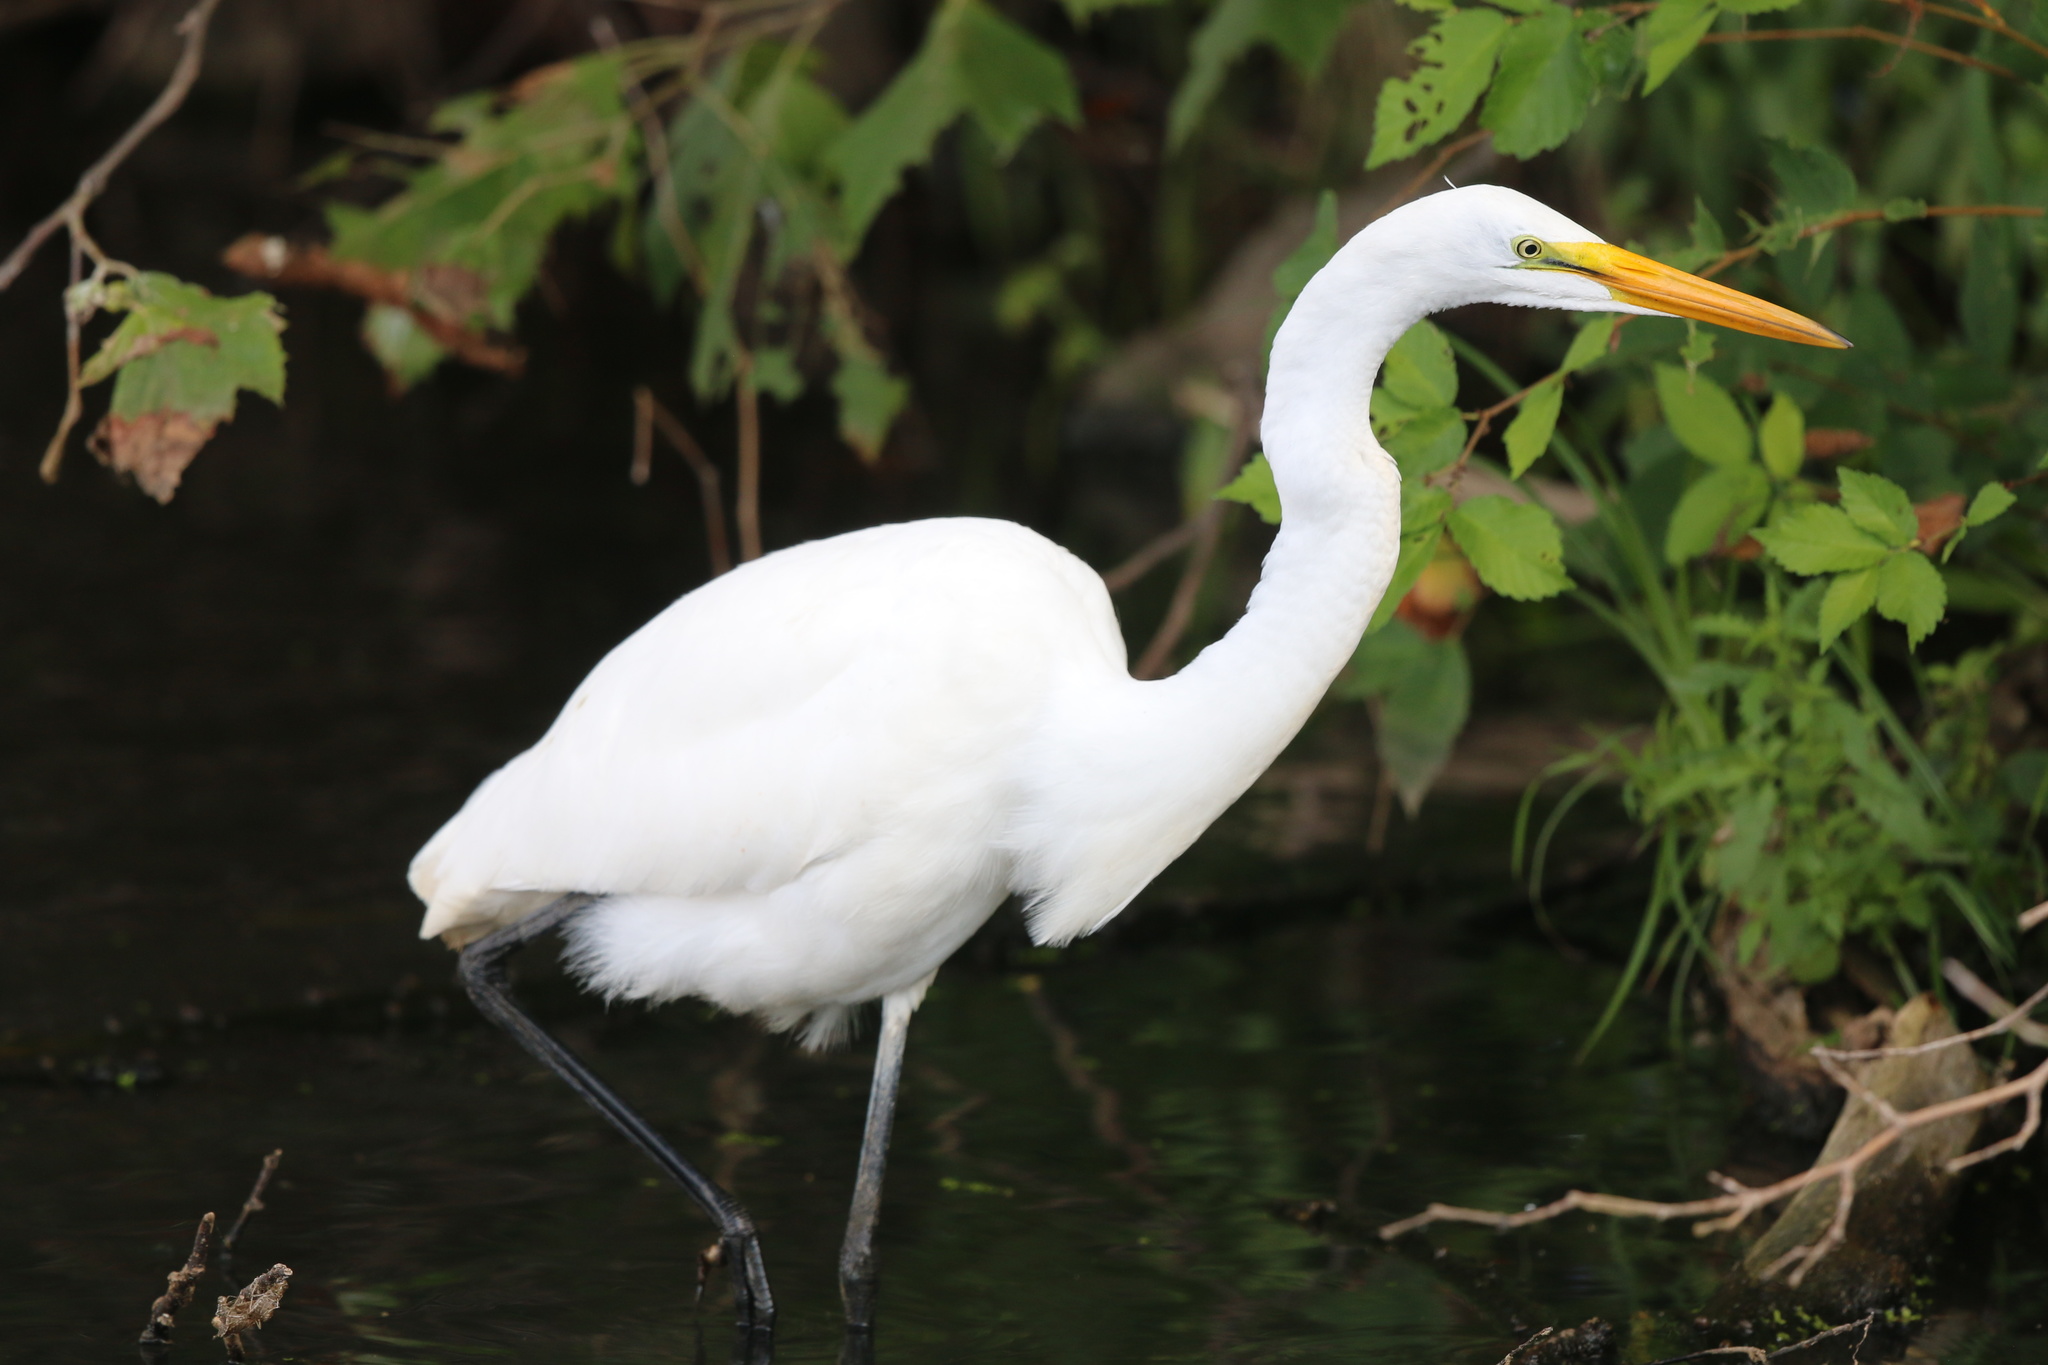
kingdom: Animalia
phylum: Chordata
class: Aves
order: Pelecaniformes
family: Ardeidae
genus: Ardea
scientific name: Ardea alba
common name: Great egret
